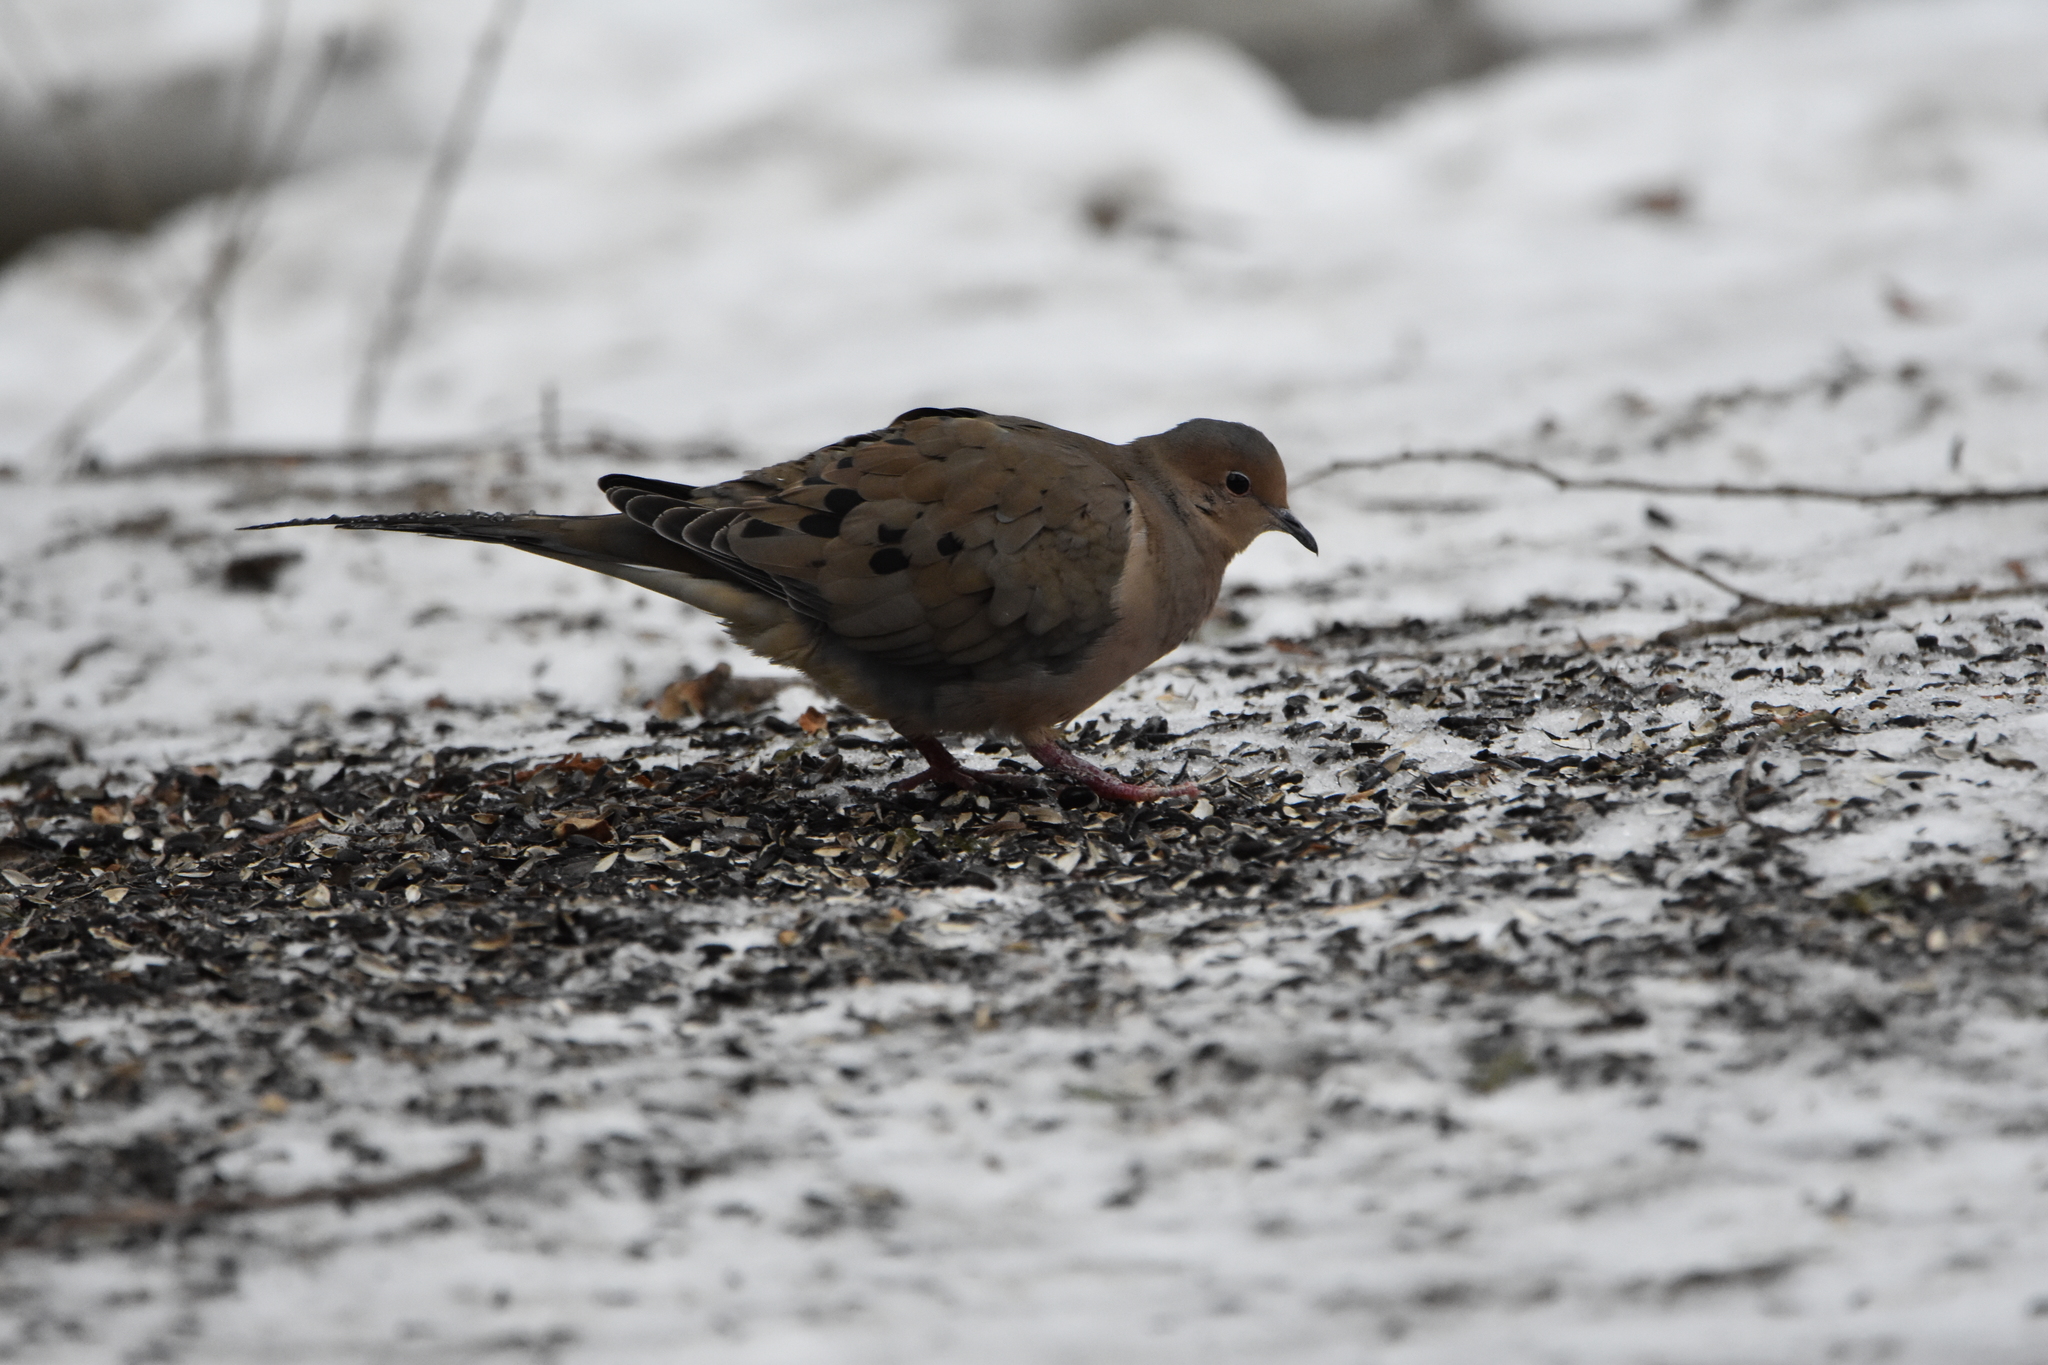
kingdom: Animalia
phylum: Chordata
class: Aves
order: Columbiformes
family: Columbidae
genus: Zenaida
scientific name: Zenaida macroura
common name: Mourning dove
